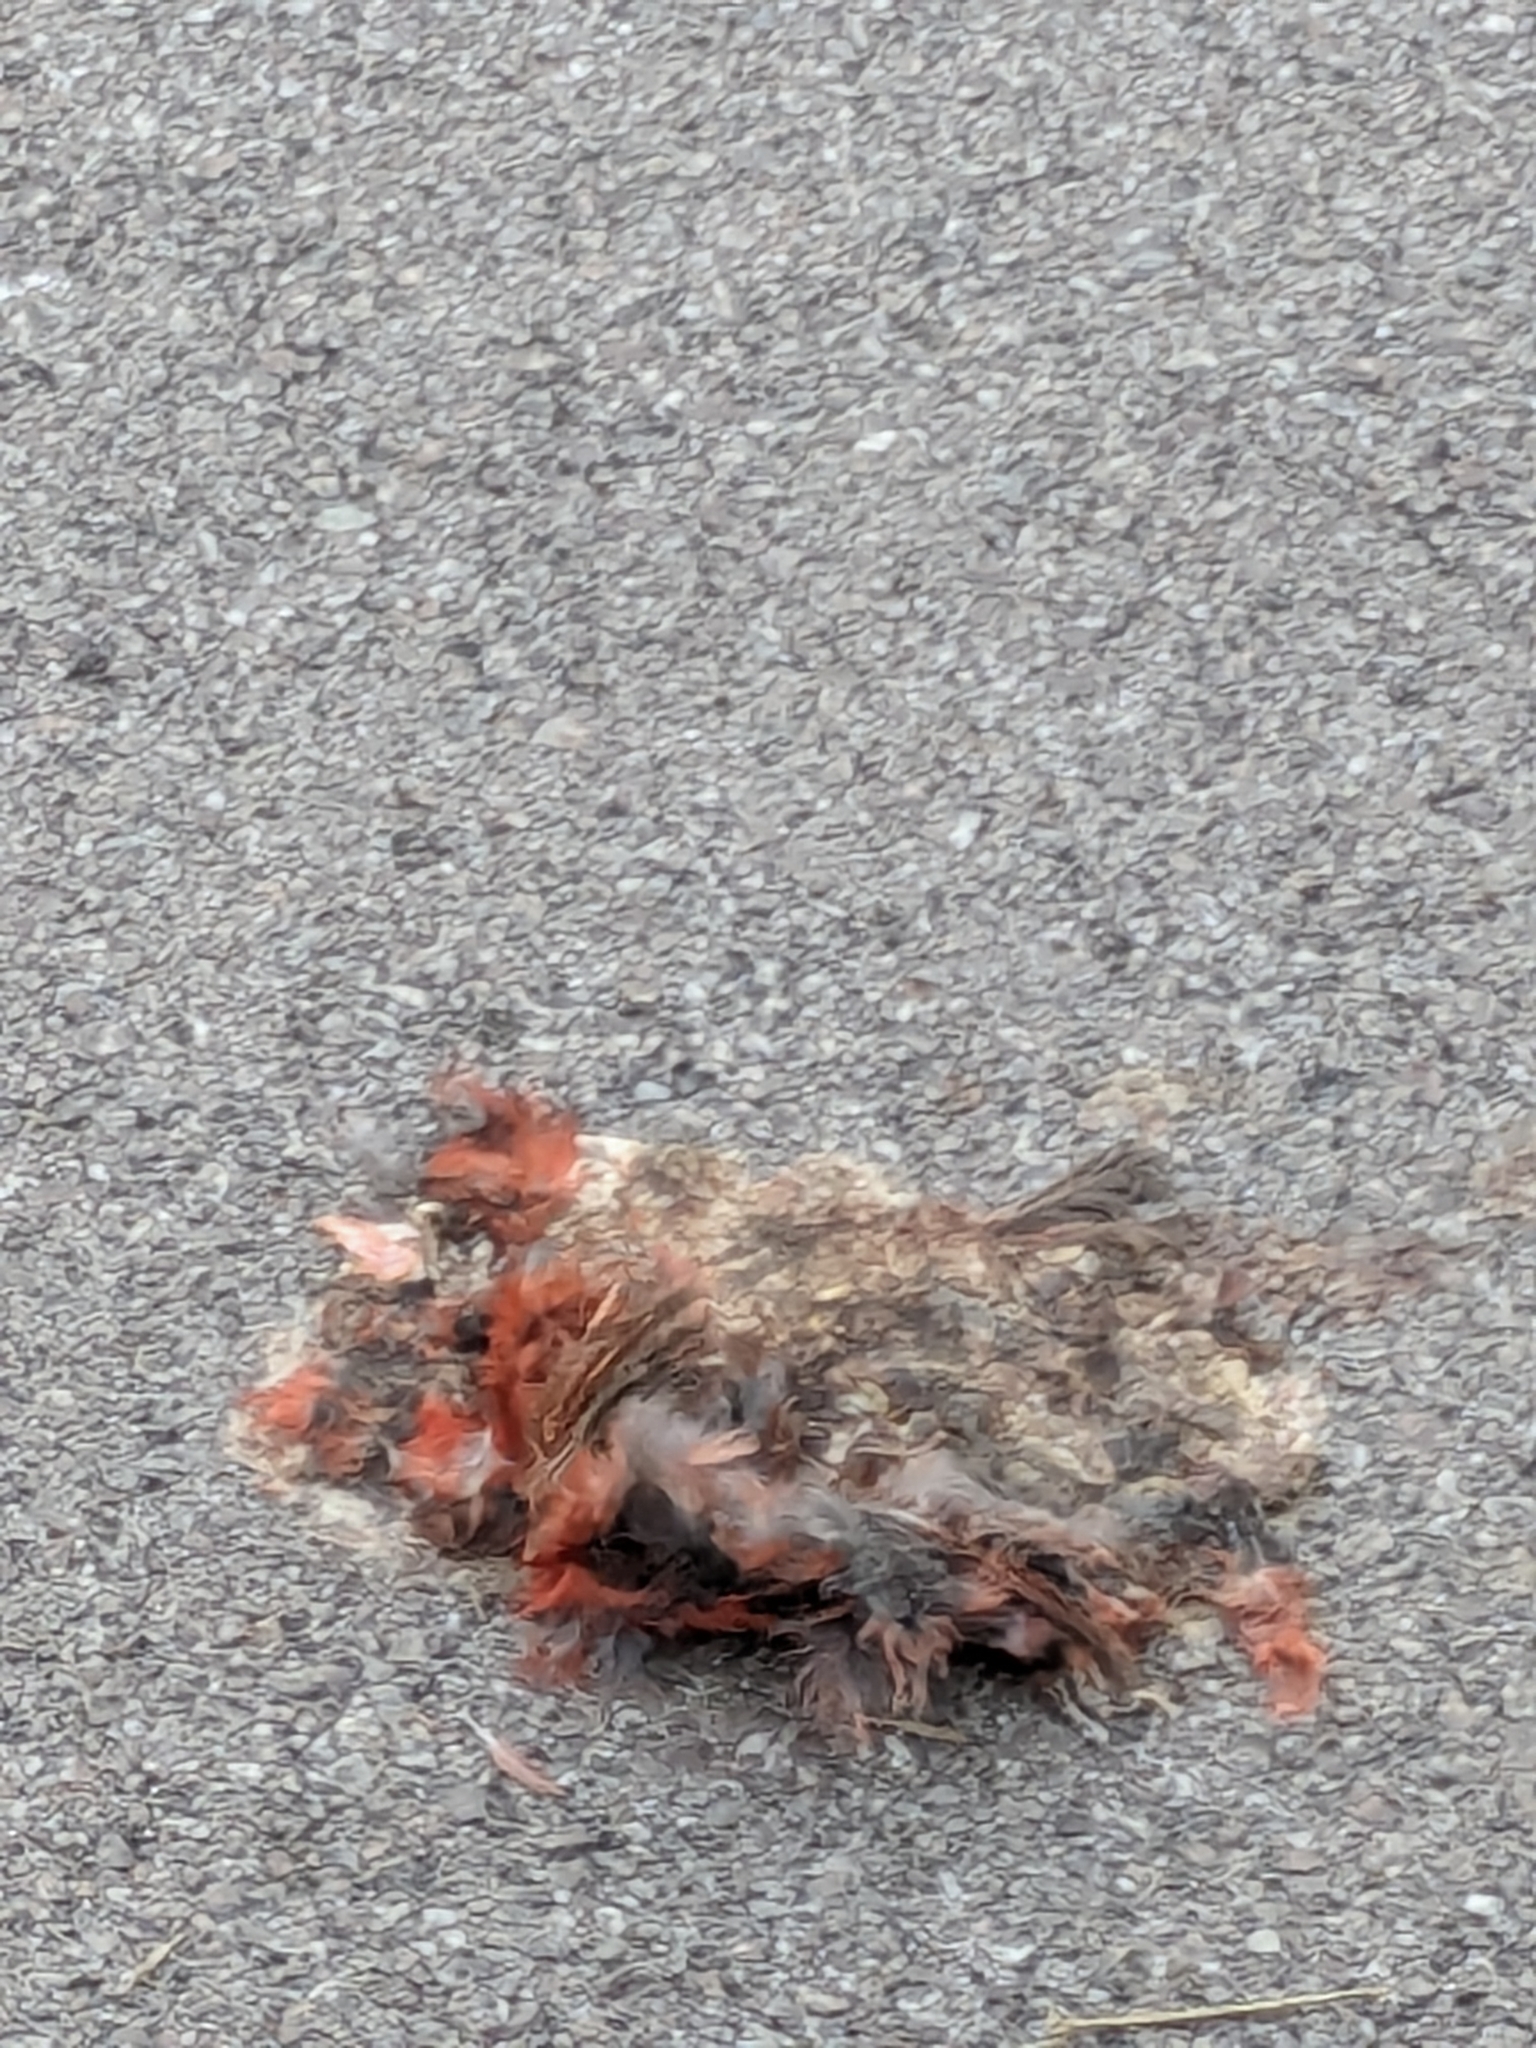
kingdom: Animalia
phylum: Chordata
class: Aves
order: Passeriformes
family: Cardinalidae
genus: Cardinalis
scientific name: Cardinalis cardinalis
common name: Northern cardinal
